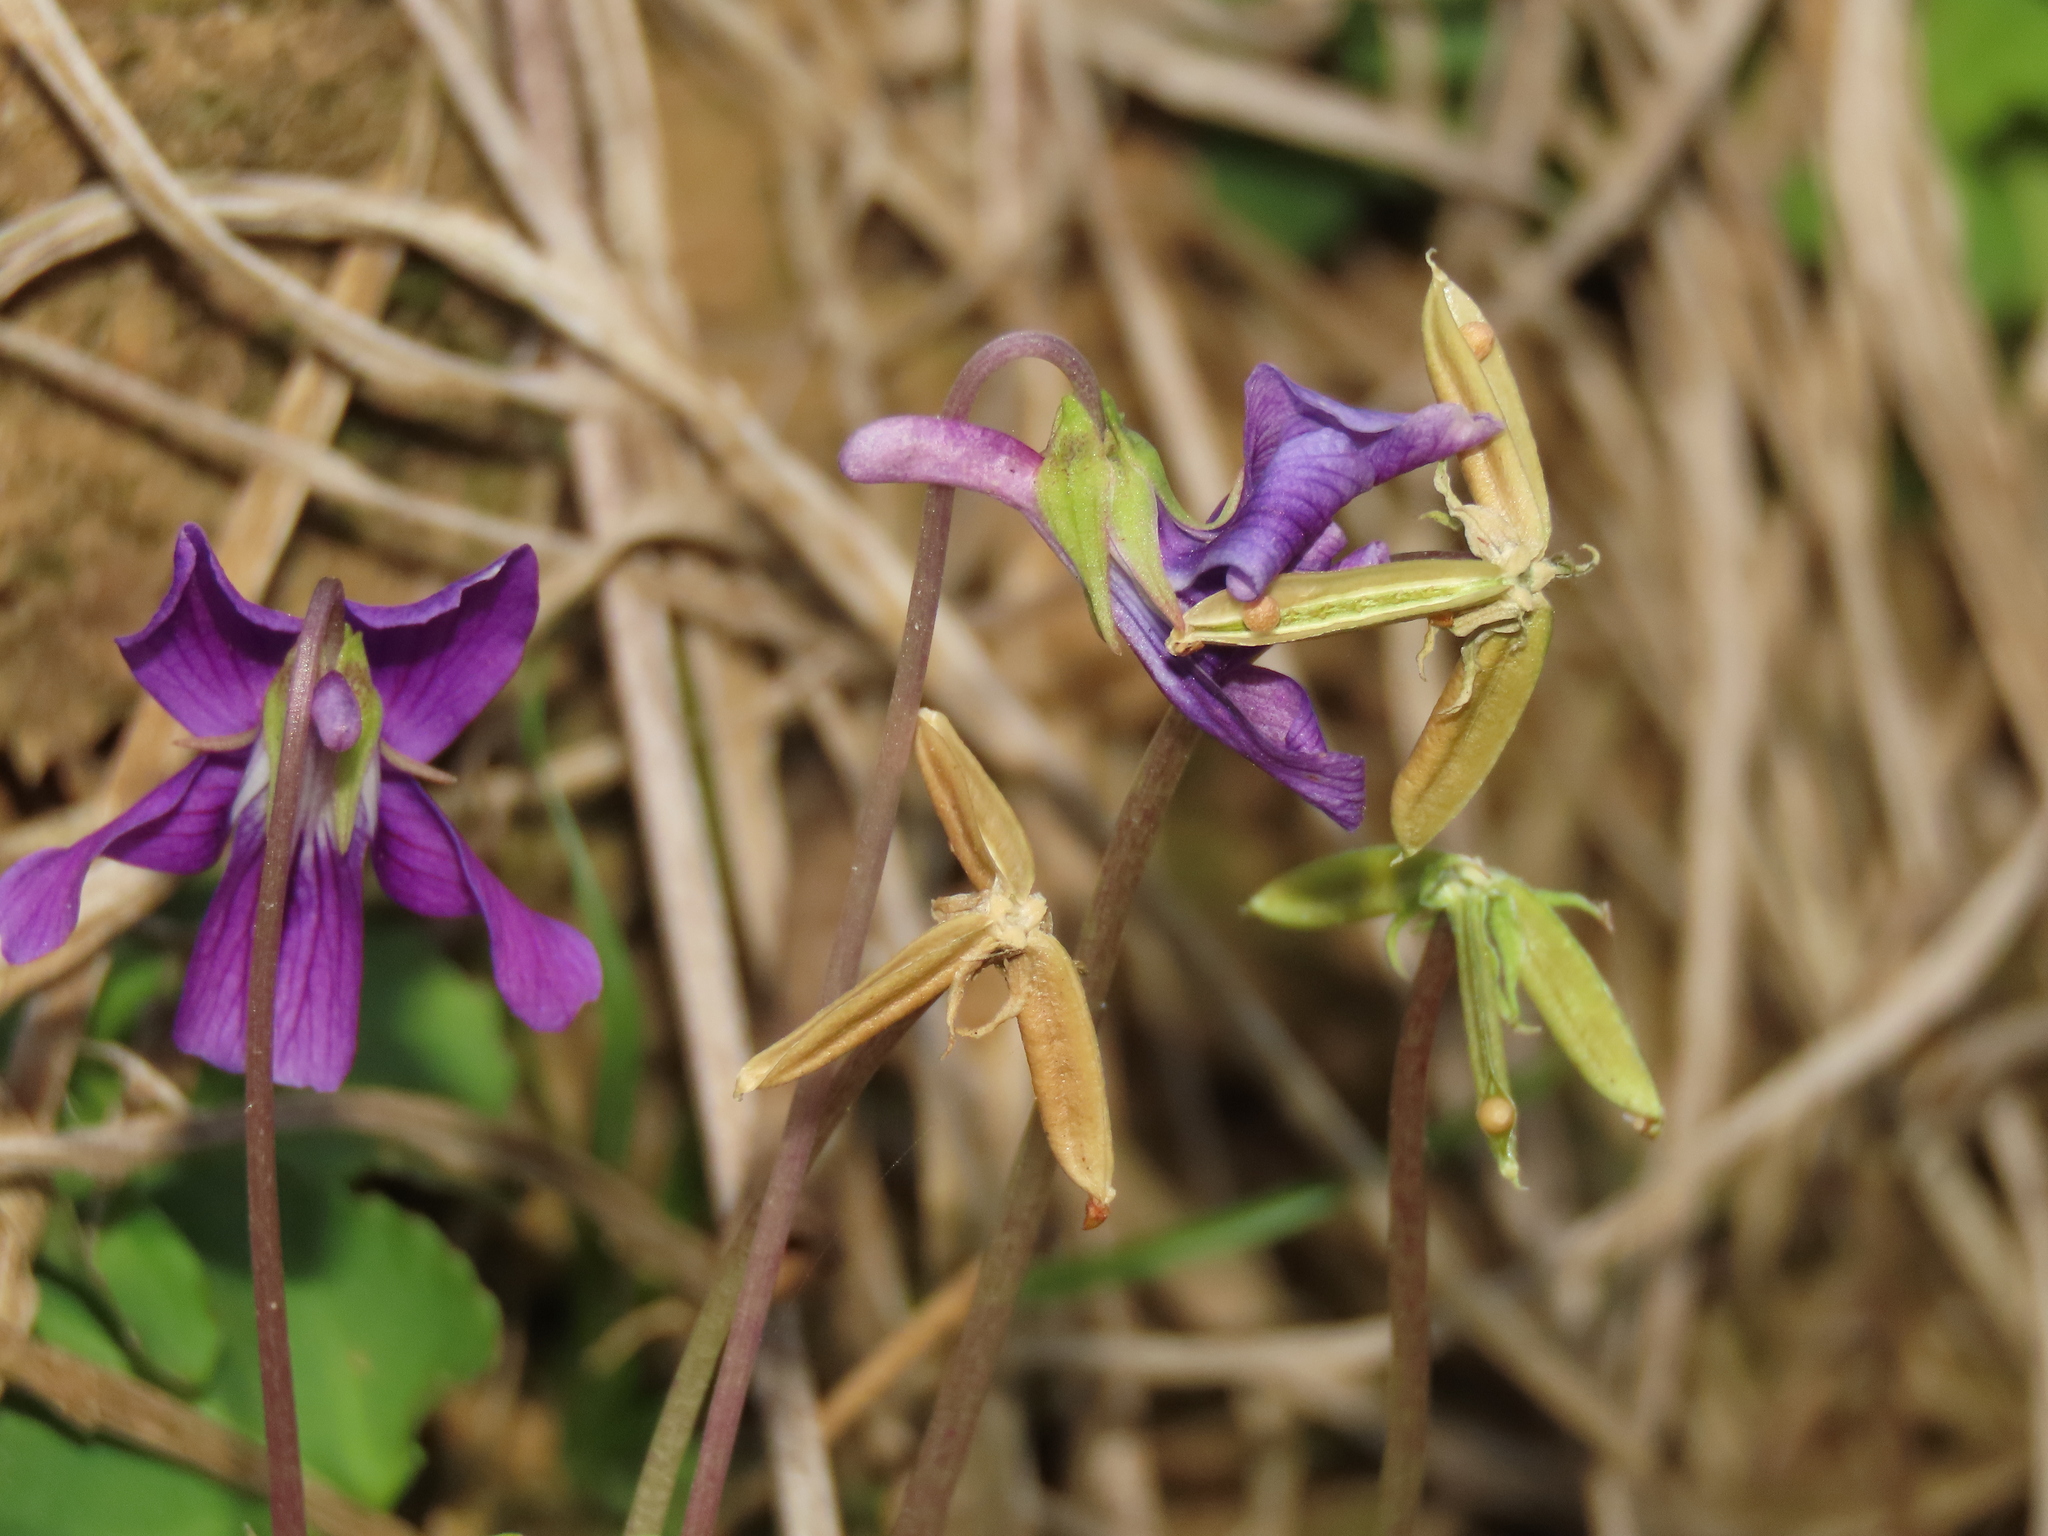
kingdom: Plantae
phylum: Tracheophyta
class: Magnoliopsida
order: Malpighiales
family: Violaceae
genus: Viola
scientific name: Viola
